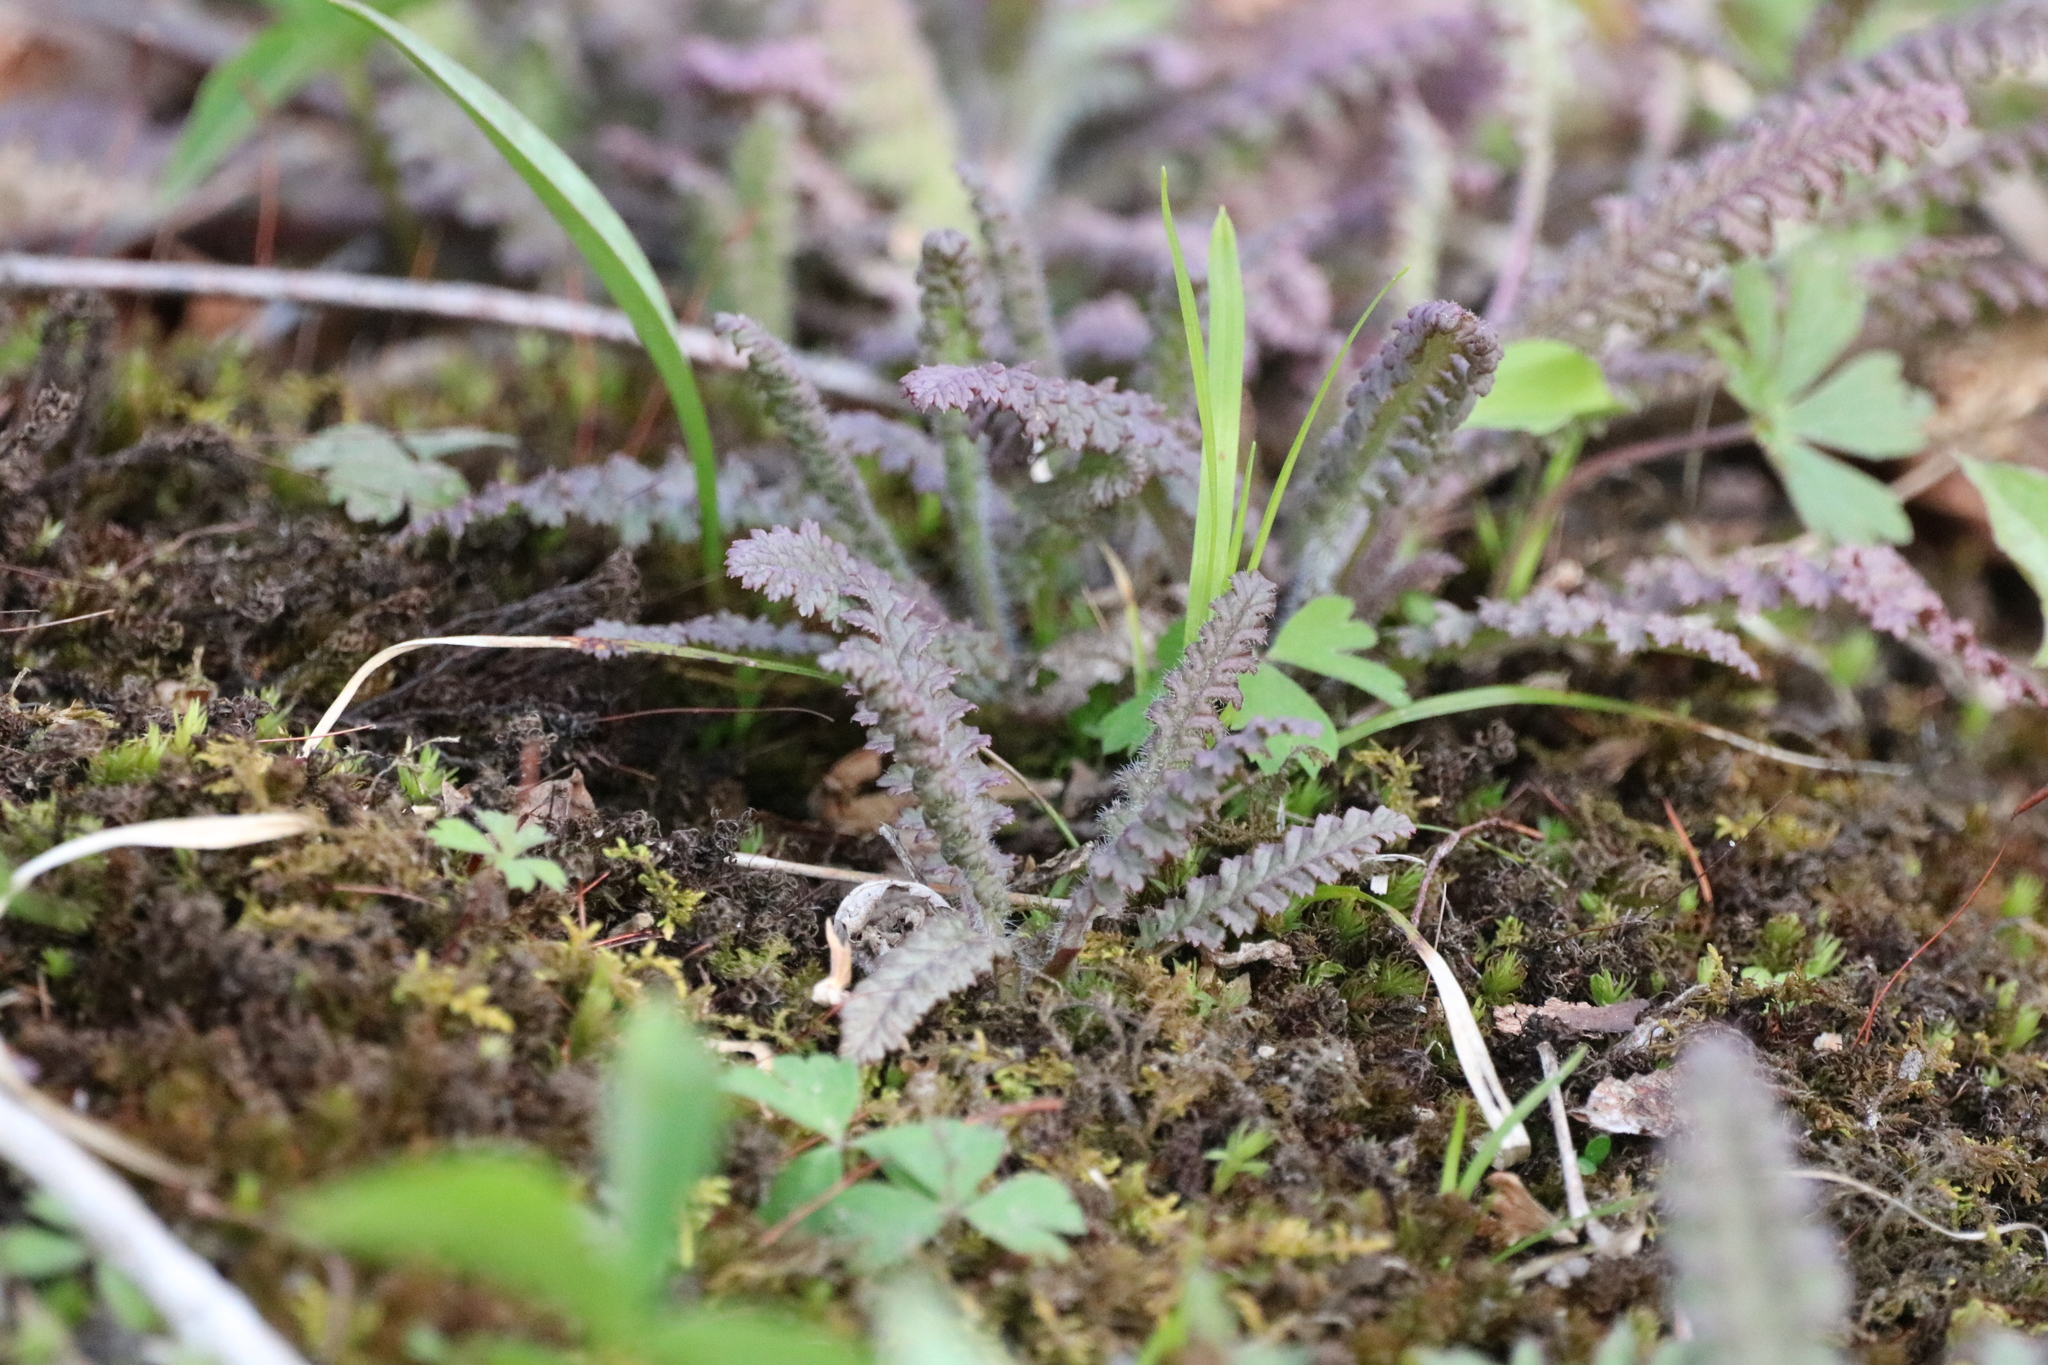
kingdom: Plantae
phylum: Tracheophyta
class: Magnoliopsida
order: Lamiales
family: Orobanchaceae
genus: Pedicularis
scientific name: Pedicularis canadensis
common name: Early lousewort
